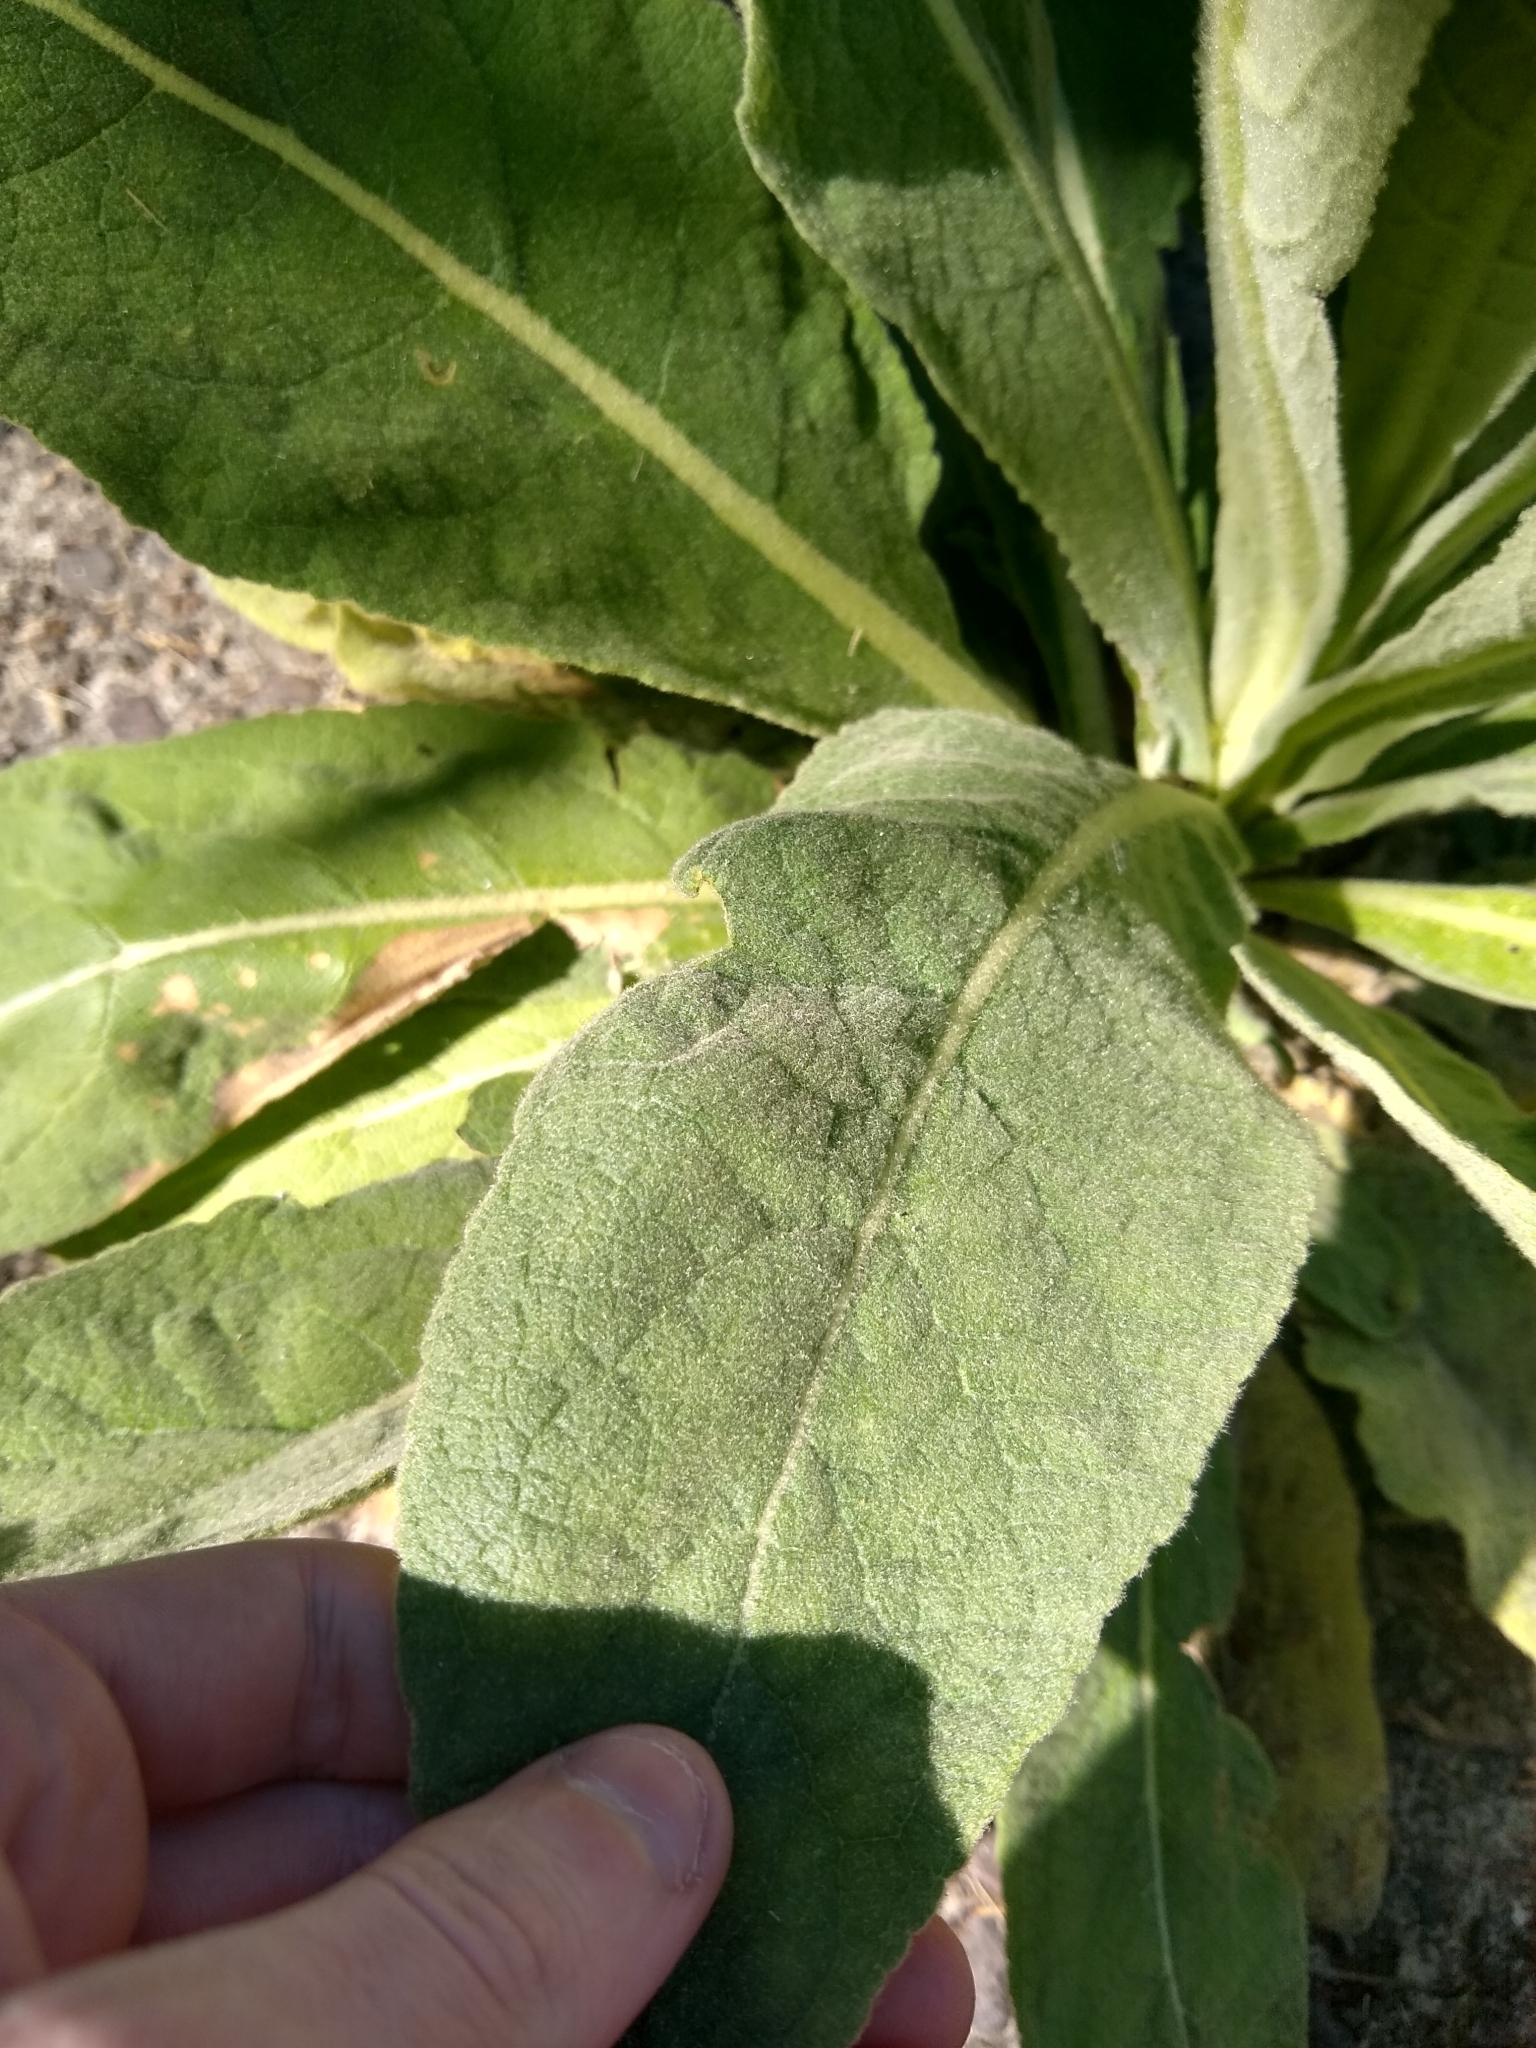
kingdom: Plantae
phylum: Tracheophyta
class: Magnoliopsida
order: Lamiales
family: Scrophulariaceae
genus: Verbascum
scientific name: Verbascum thapsus
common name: Common mullein
